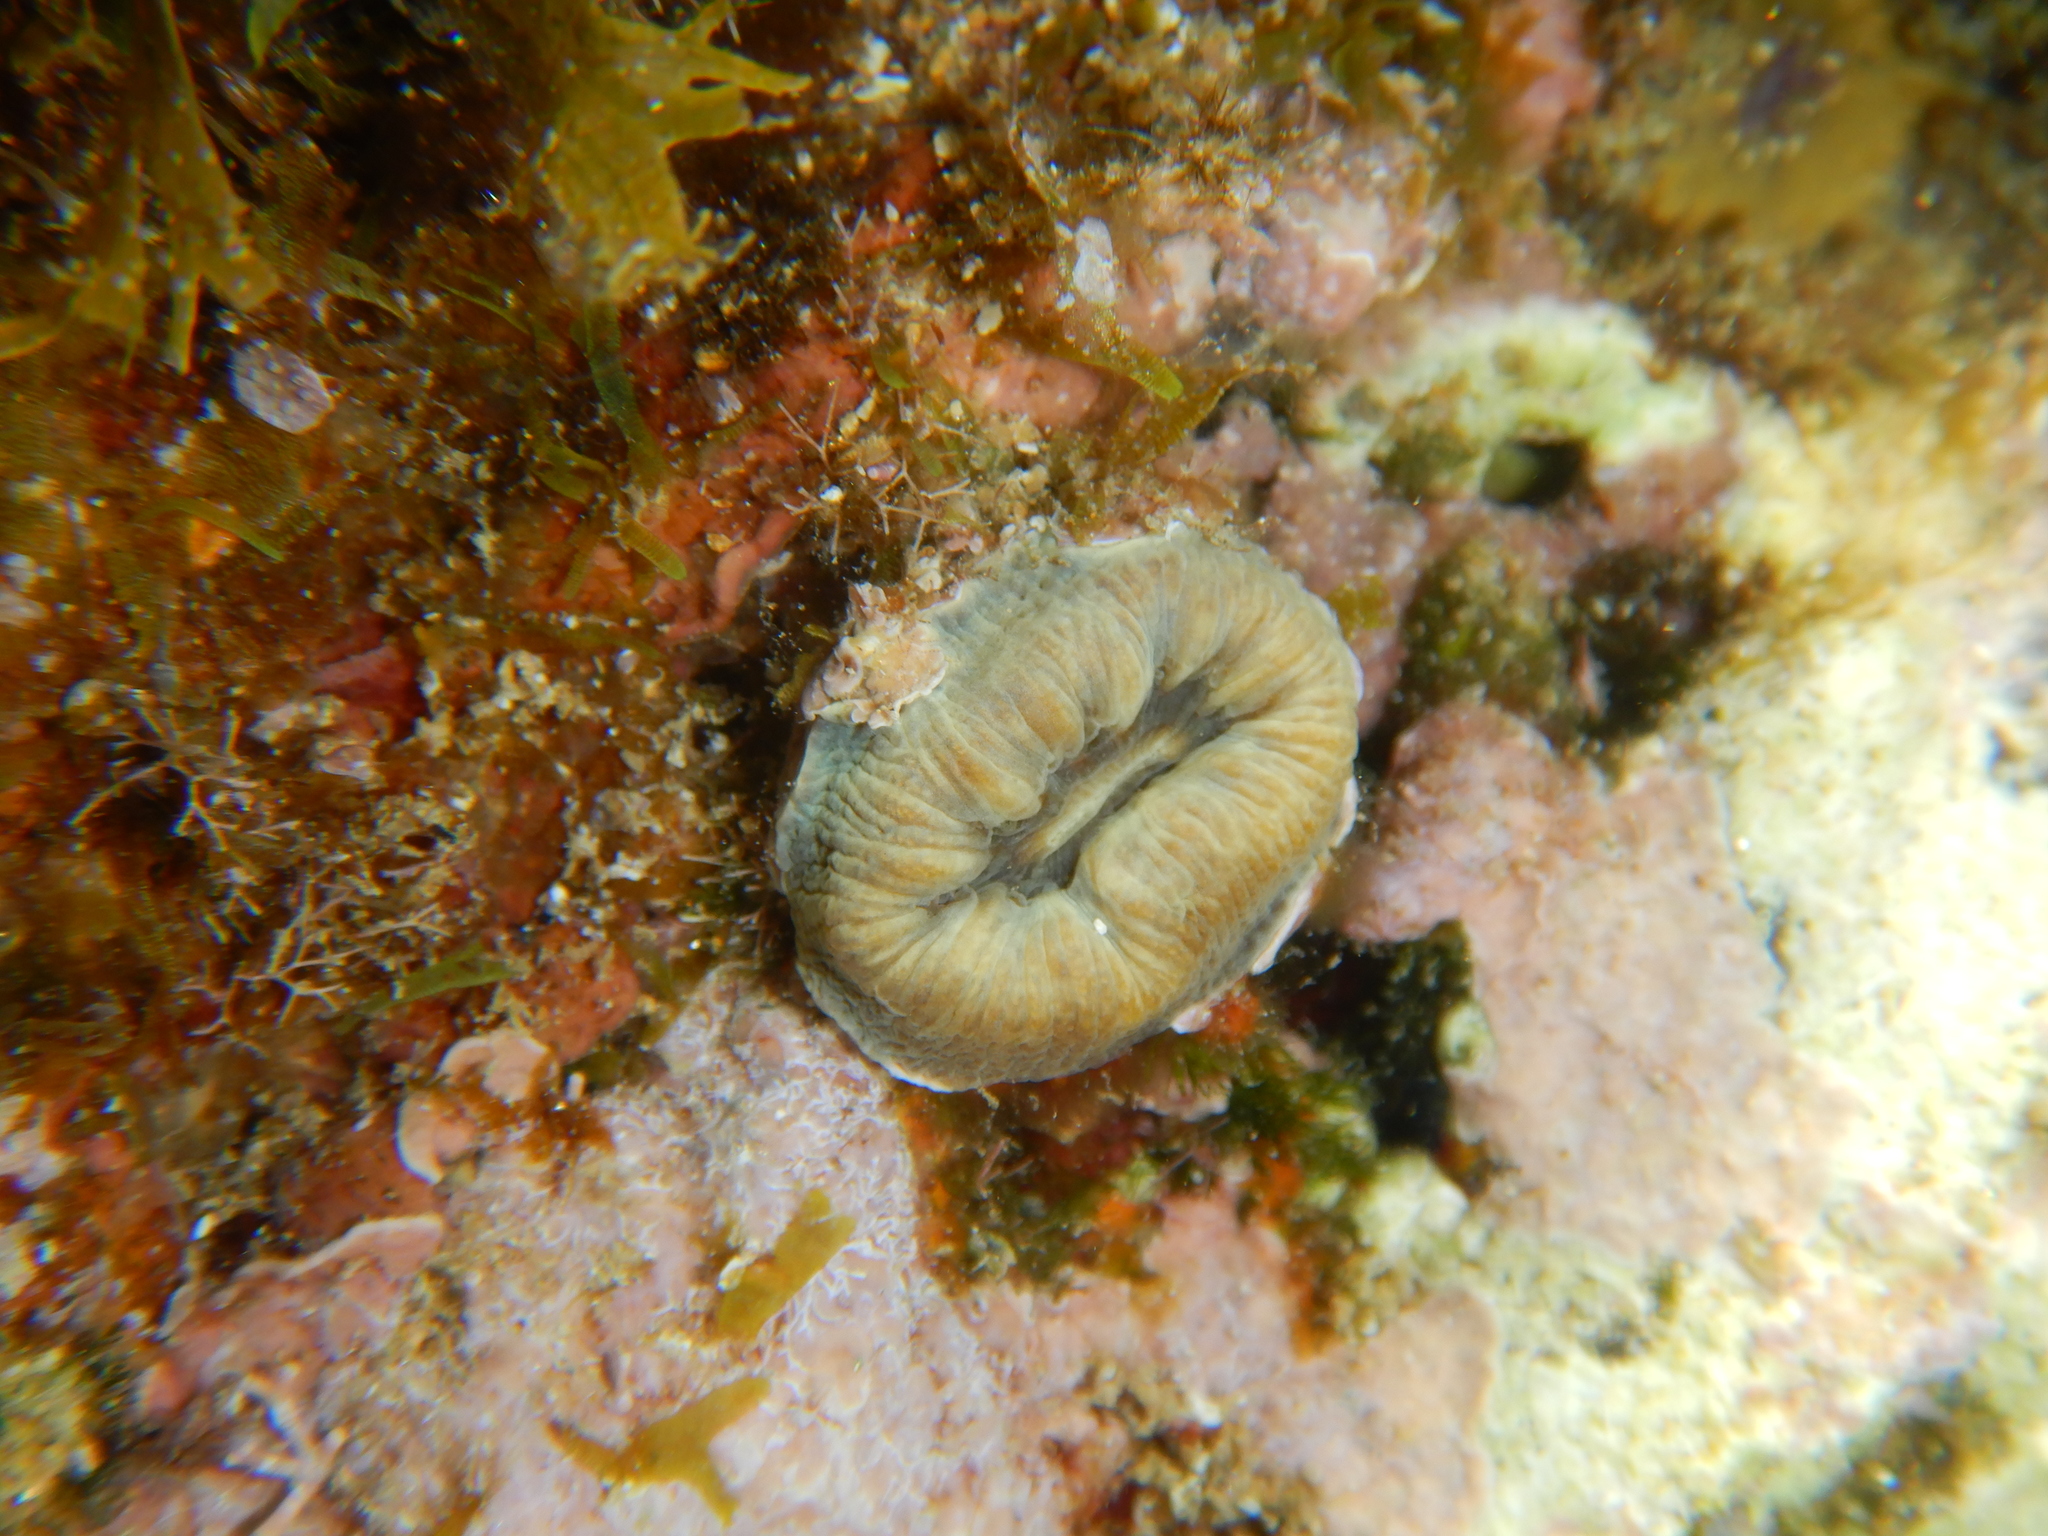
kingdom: Animalia
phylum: Cnidaria
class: Anthozoa
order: Scleractinia
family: Dendrophylliidae
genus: Balanophyllia
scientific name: Balanophyllia europaea
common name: Scarlet coral
